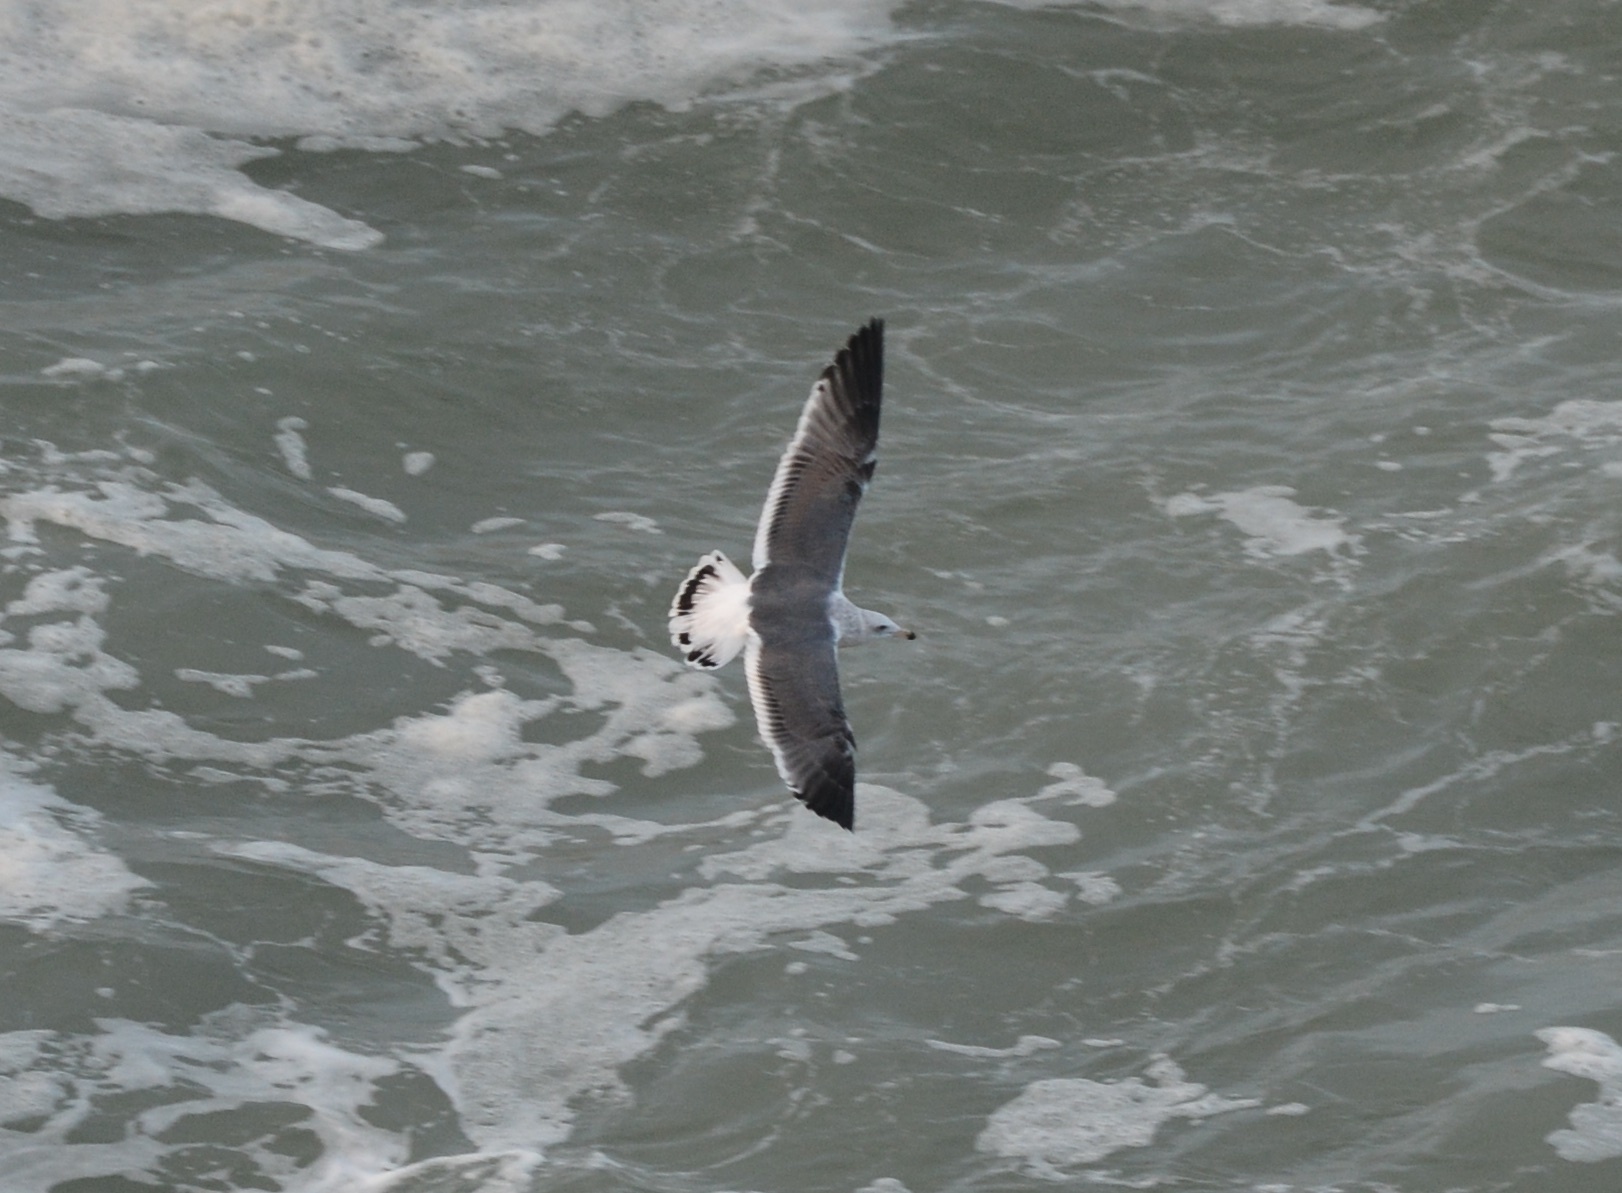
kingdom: Animalia
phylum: Chordata
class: Aves
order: Charadriiformes
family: Laridae
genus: Larus
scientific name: Larus occidentalis
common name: Western gull
